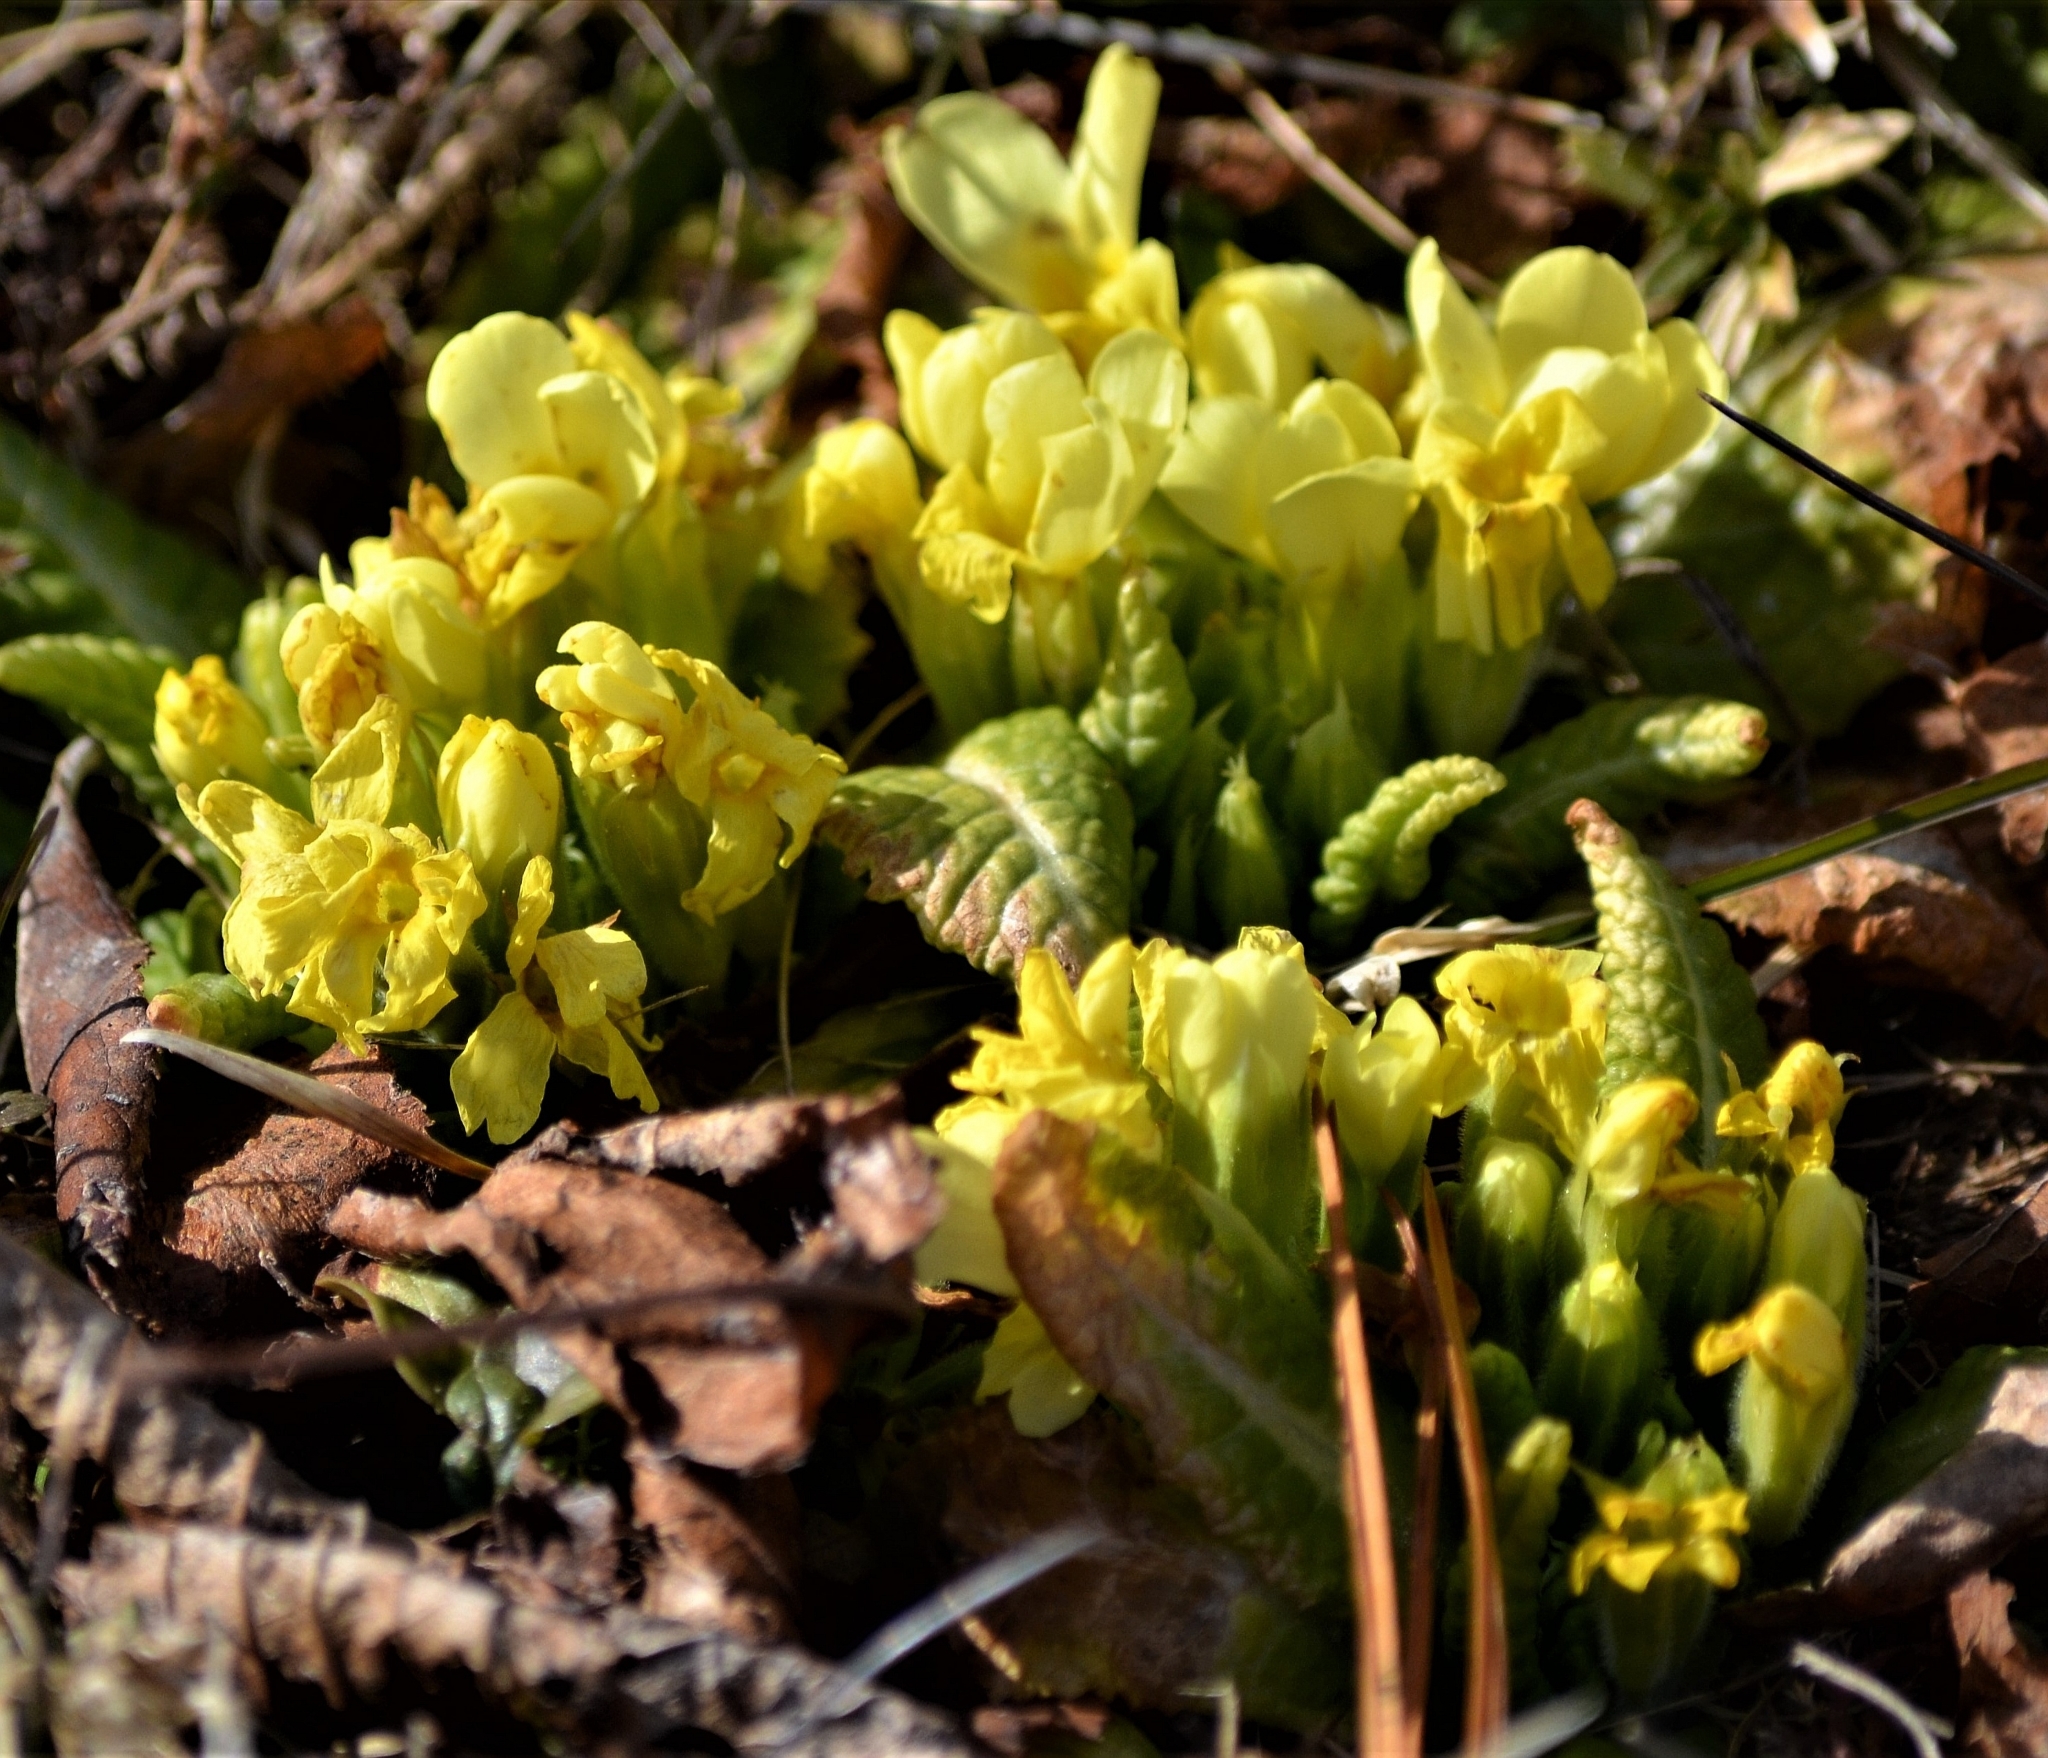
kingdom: Plantae
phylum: Tracheophyta
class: Magnoliopsida
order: Ericales
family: Primulaceae
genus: Primula
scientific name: Primula vulgaris
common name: Primrose
